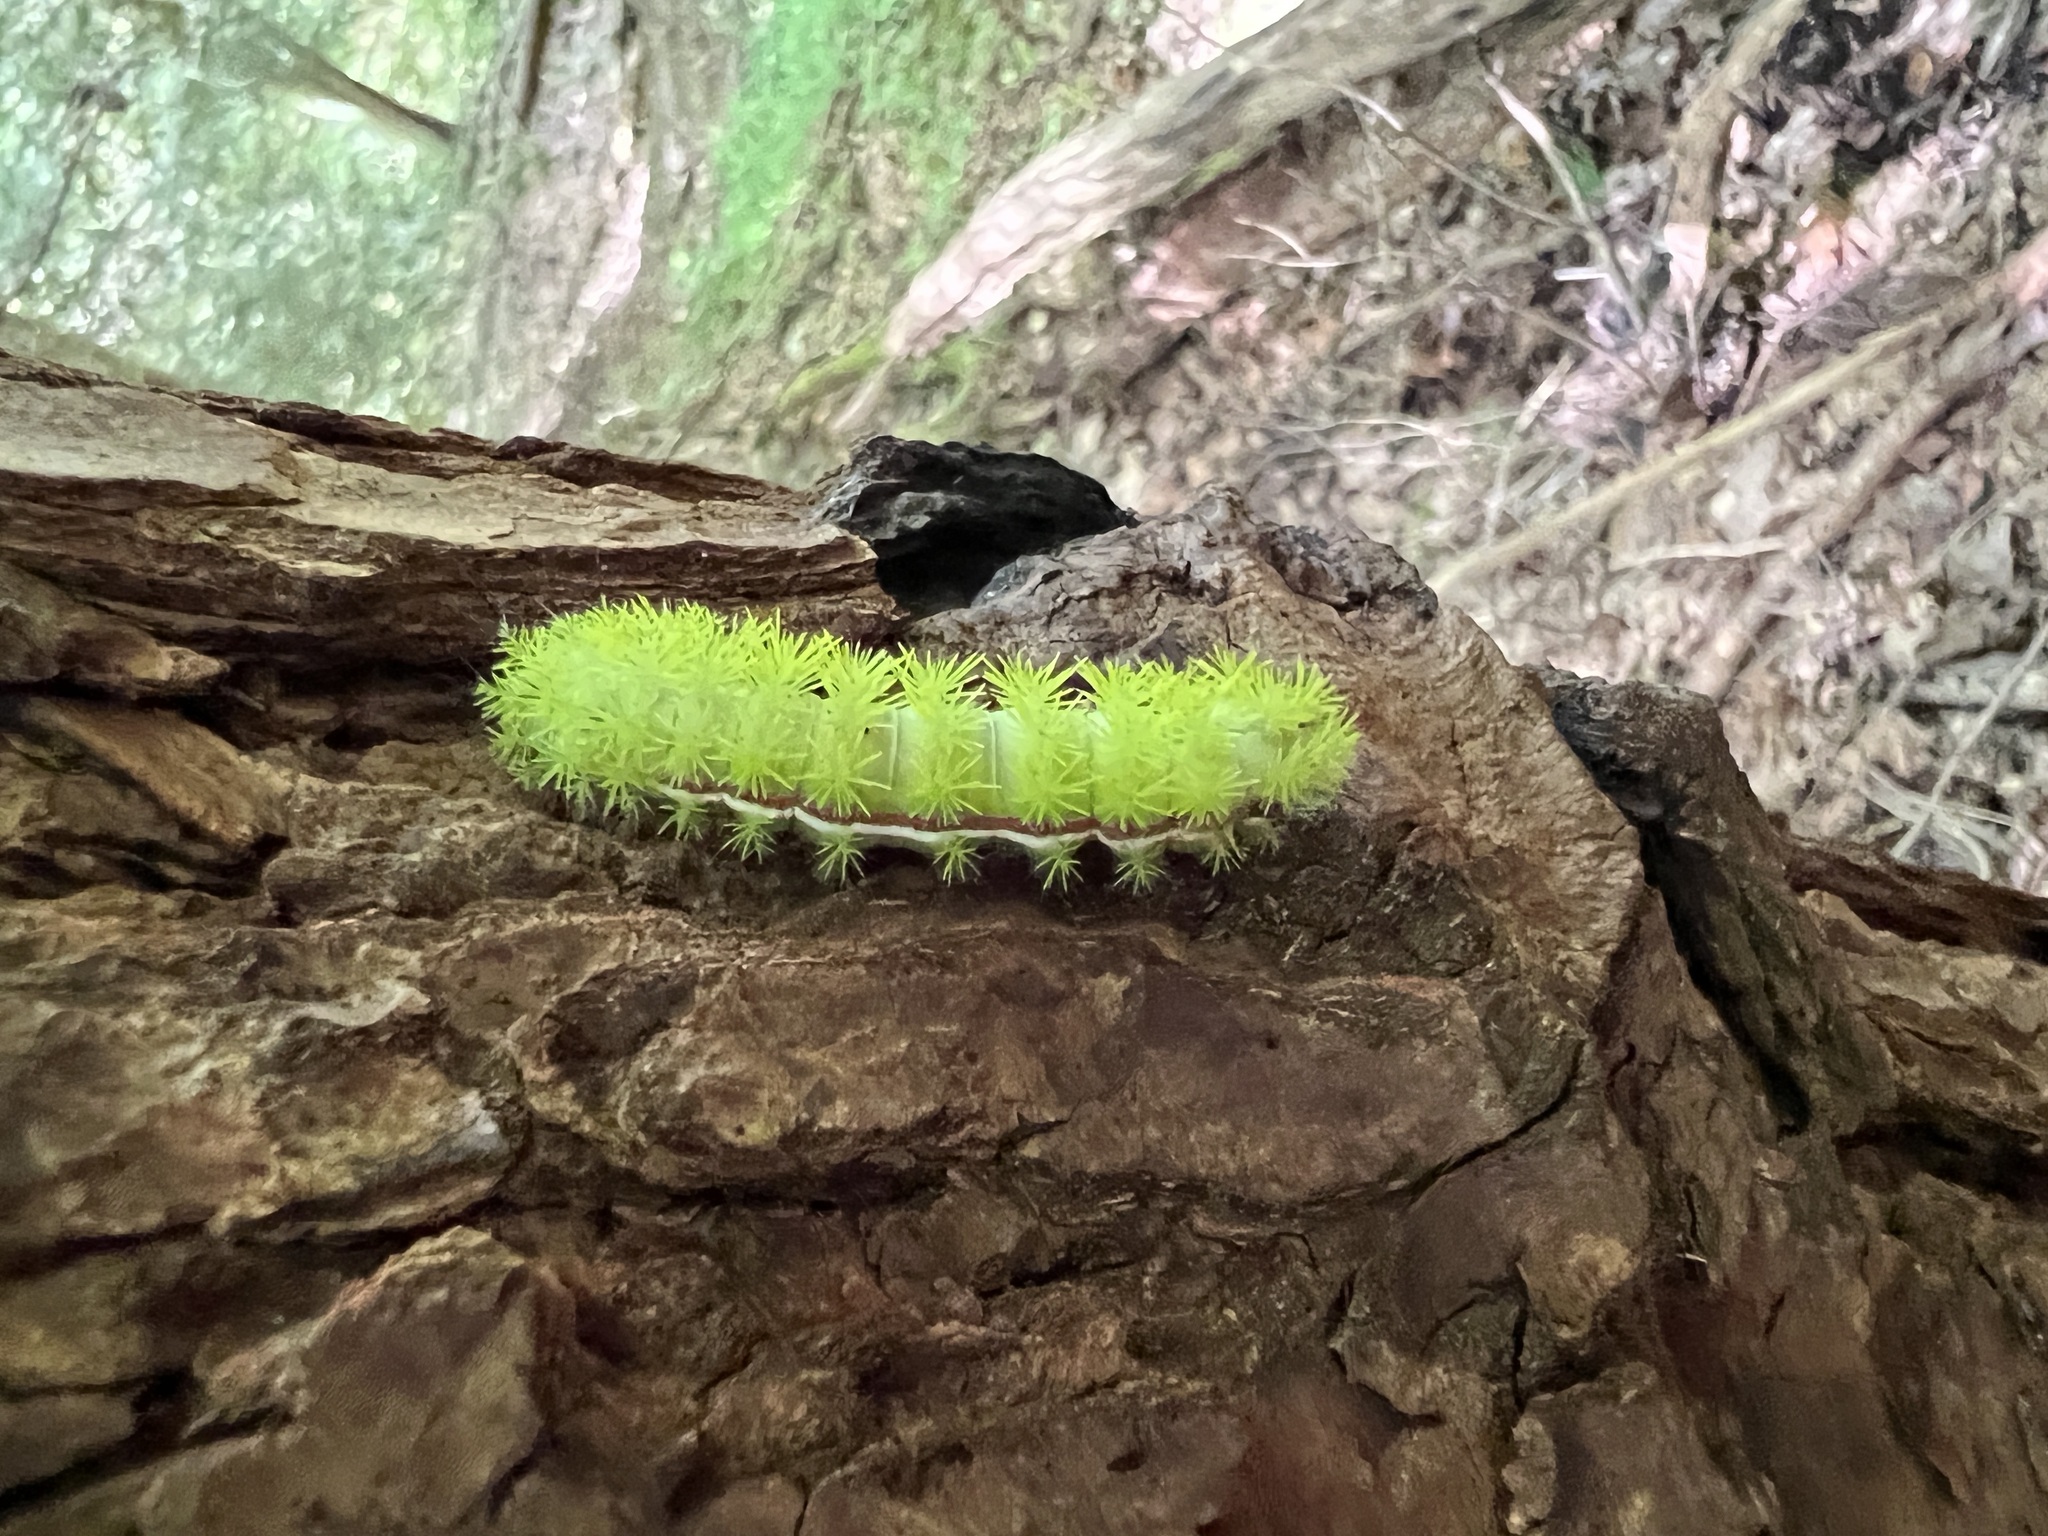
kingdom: Animalia
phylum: Arthropoda
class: Insecta
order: Lepidoptera
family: Saturniidae
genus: Automeris
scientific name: Automeris io
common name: Io moth
